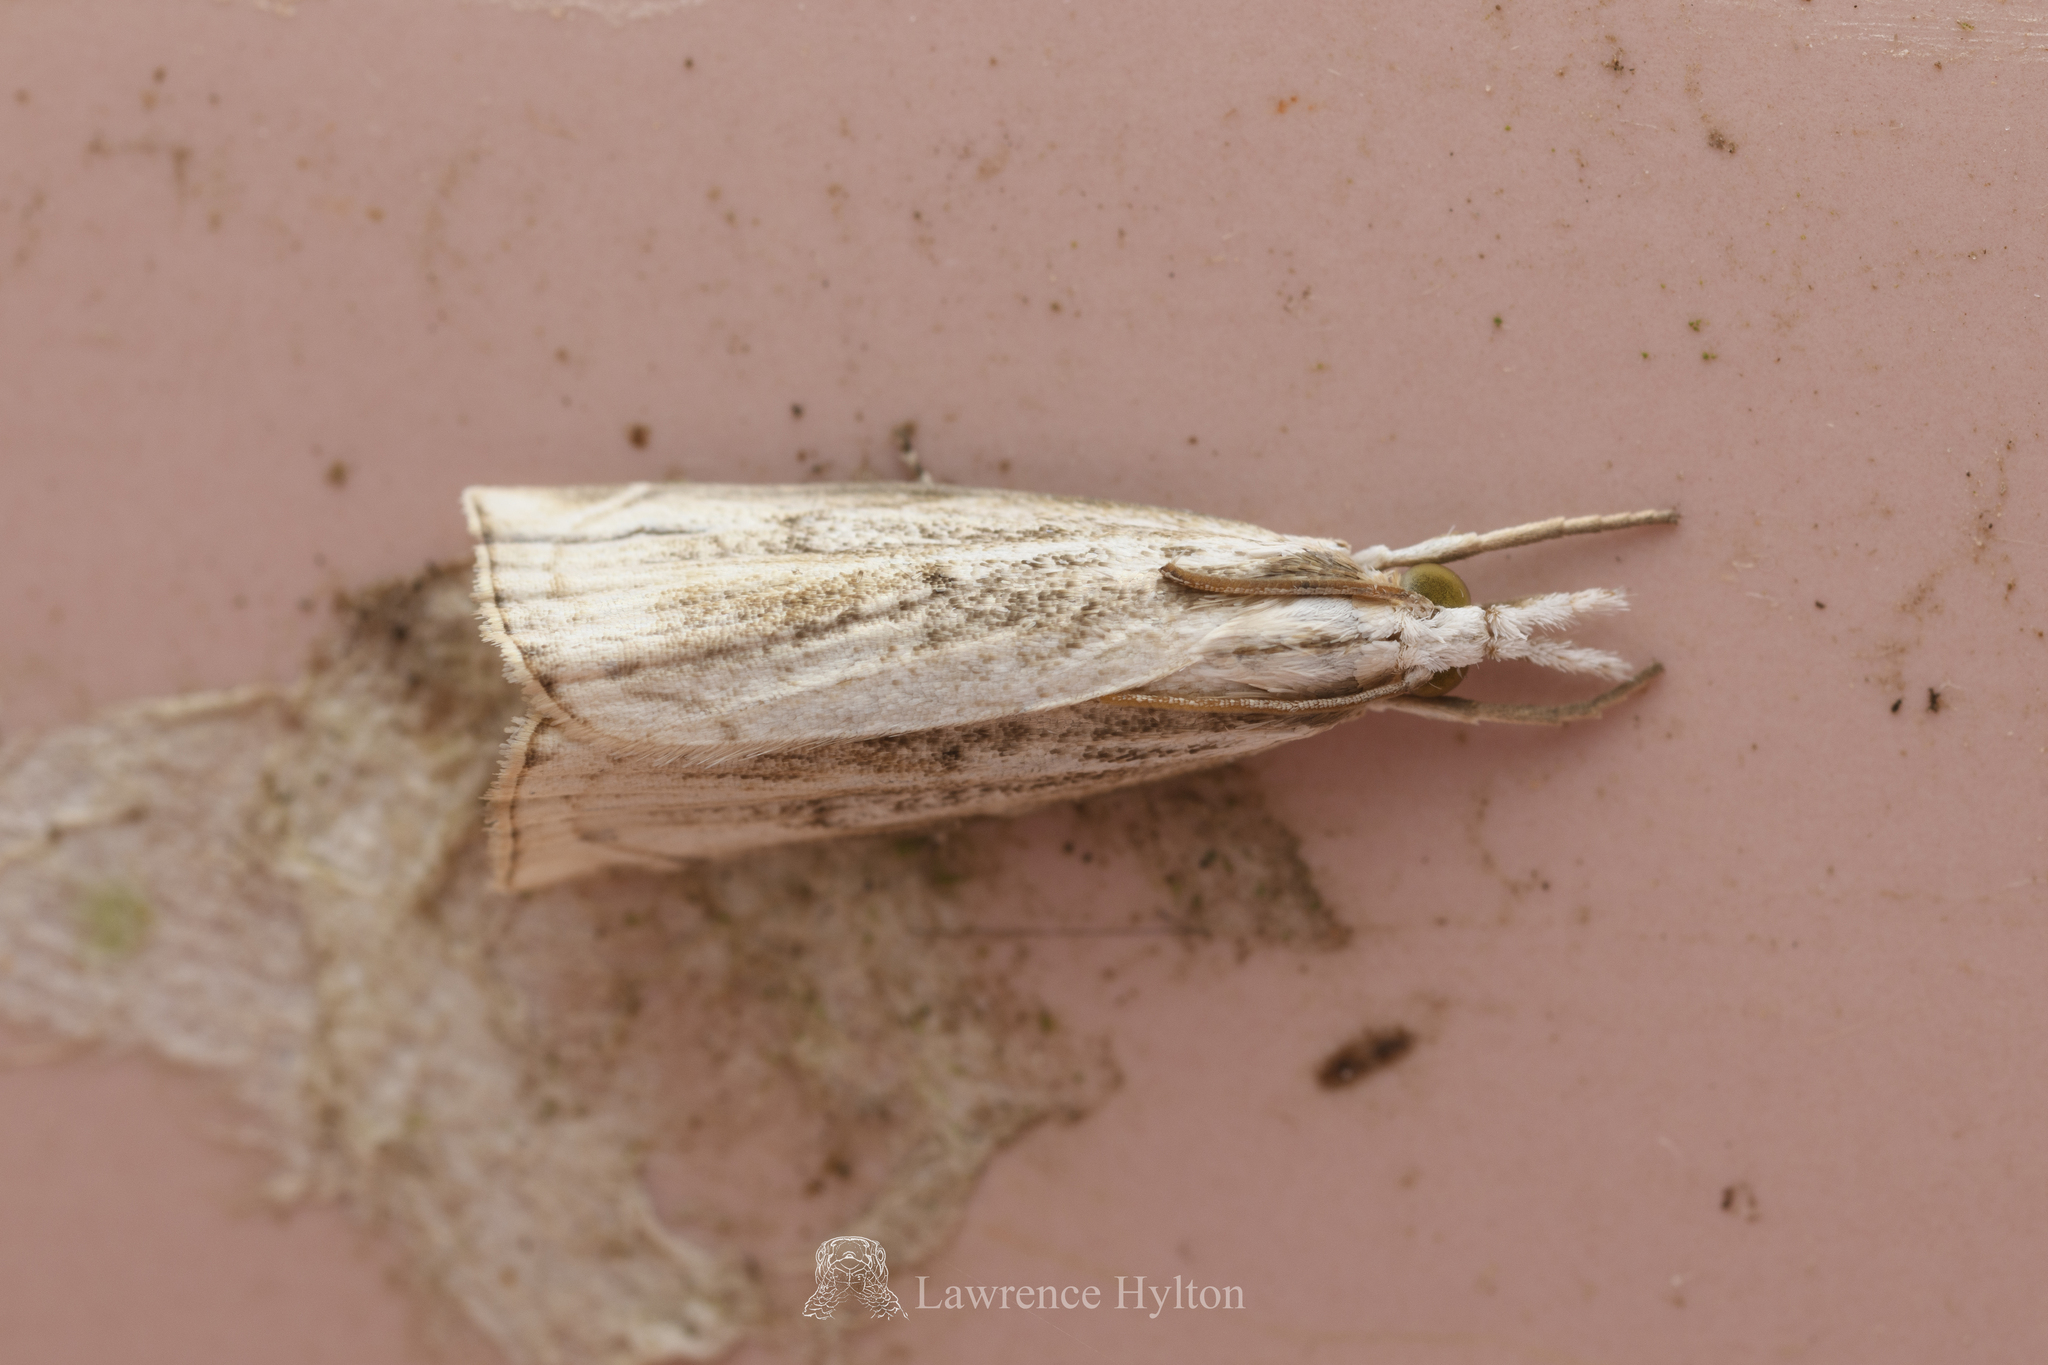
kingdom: Animalia
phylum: Arthropoda
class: Insecta
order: Lepidoptera
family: Crambidae
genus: Calamotropha
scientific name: Calamotropha formosella
